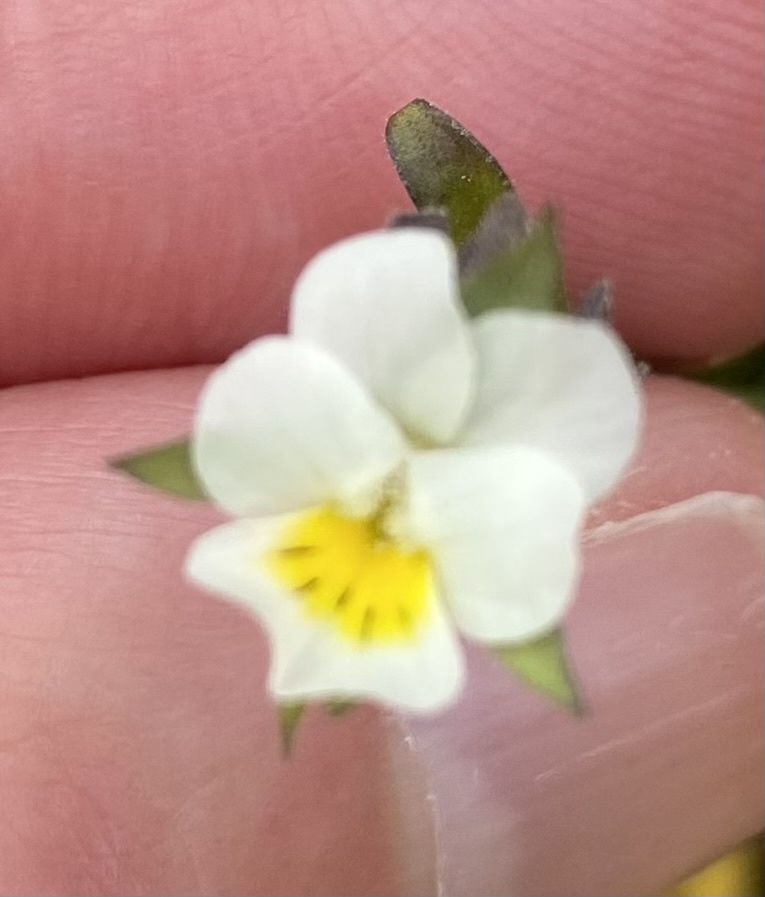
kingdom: Plantae
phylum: Tracheophyta
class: Magnoliopsida
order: Malpighiales
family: Violaceae
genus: Viola
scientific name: Viola arvensis
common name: Field pansy
